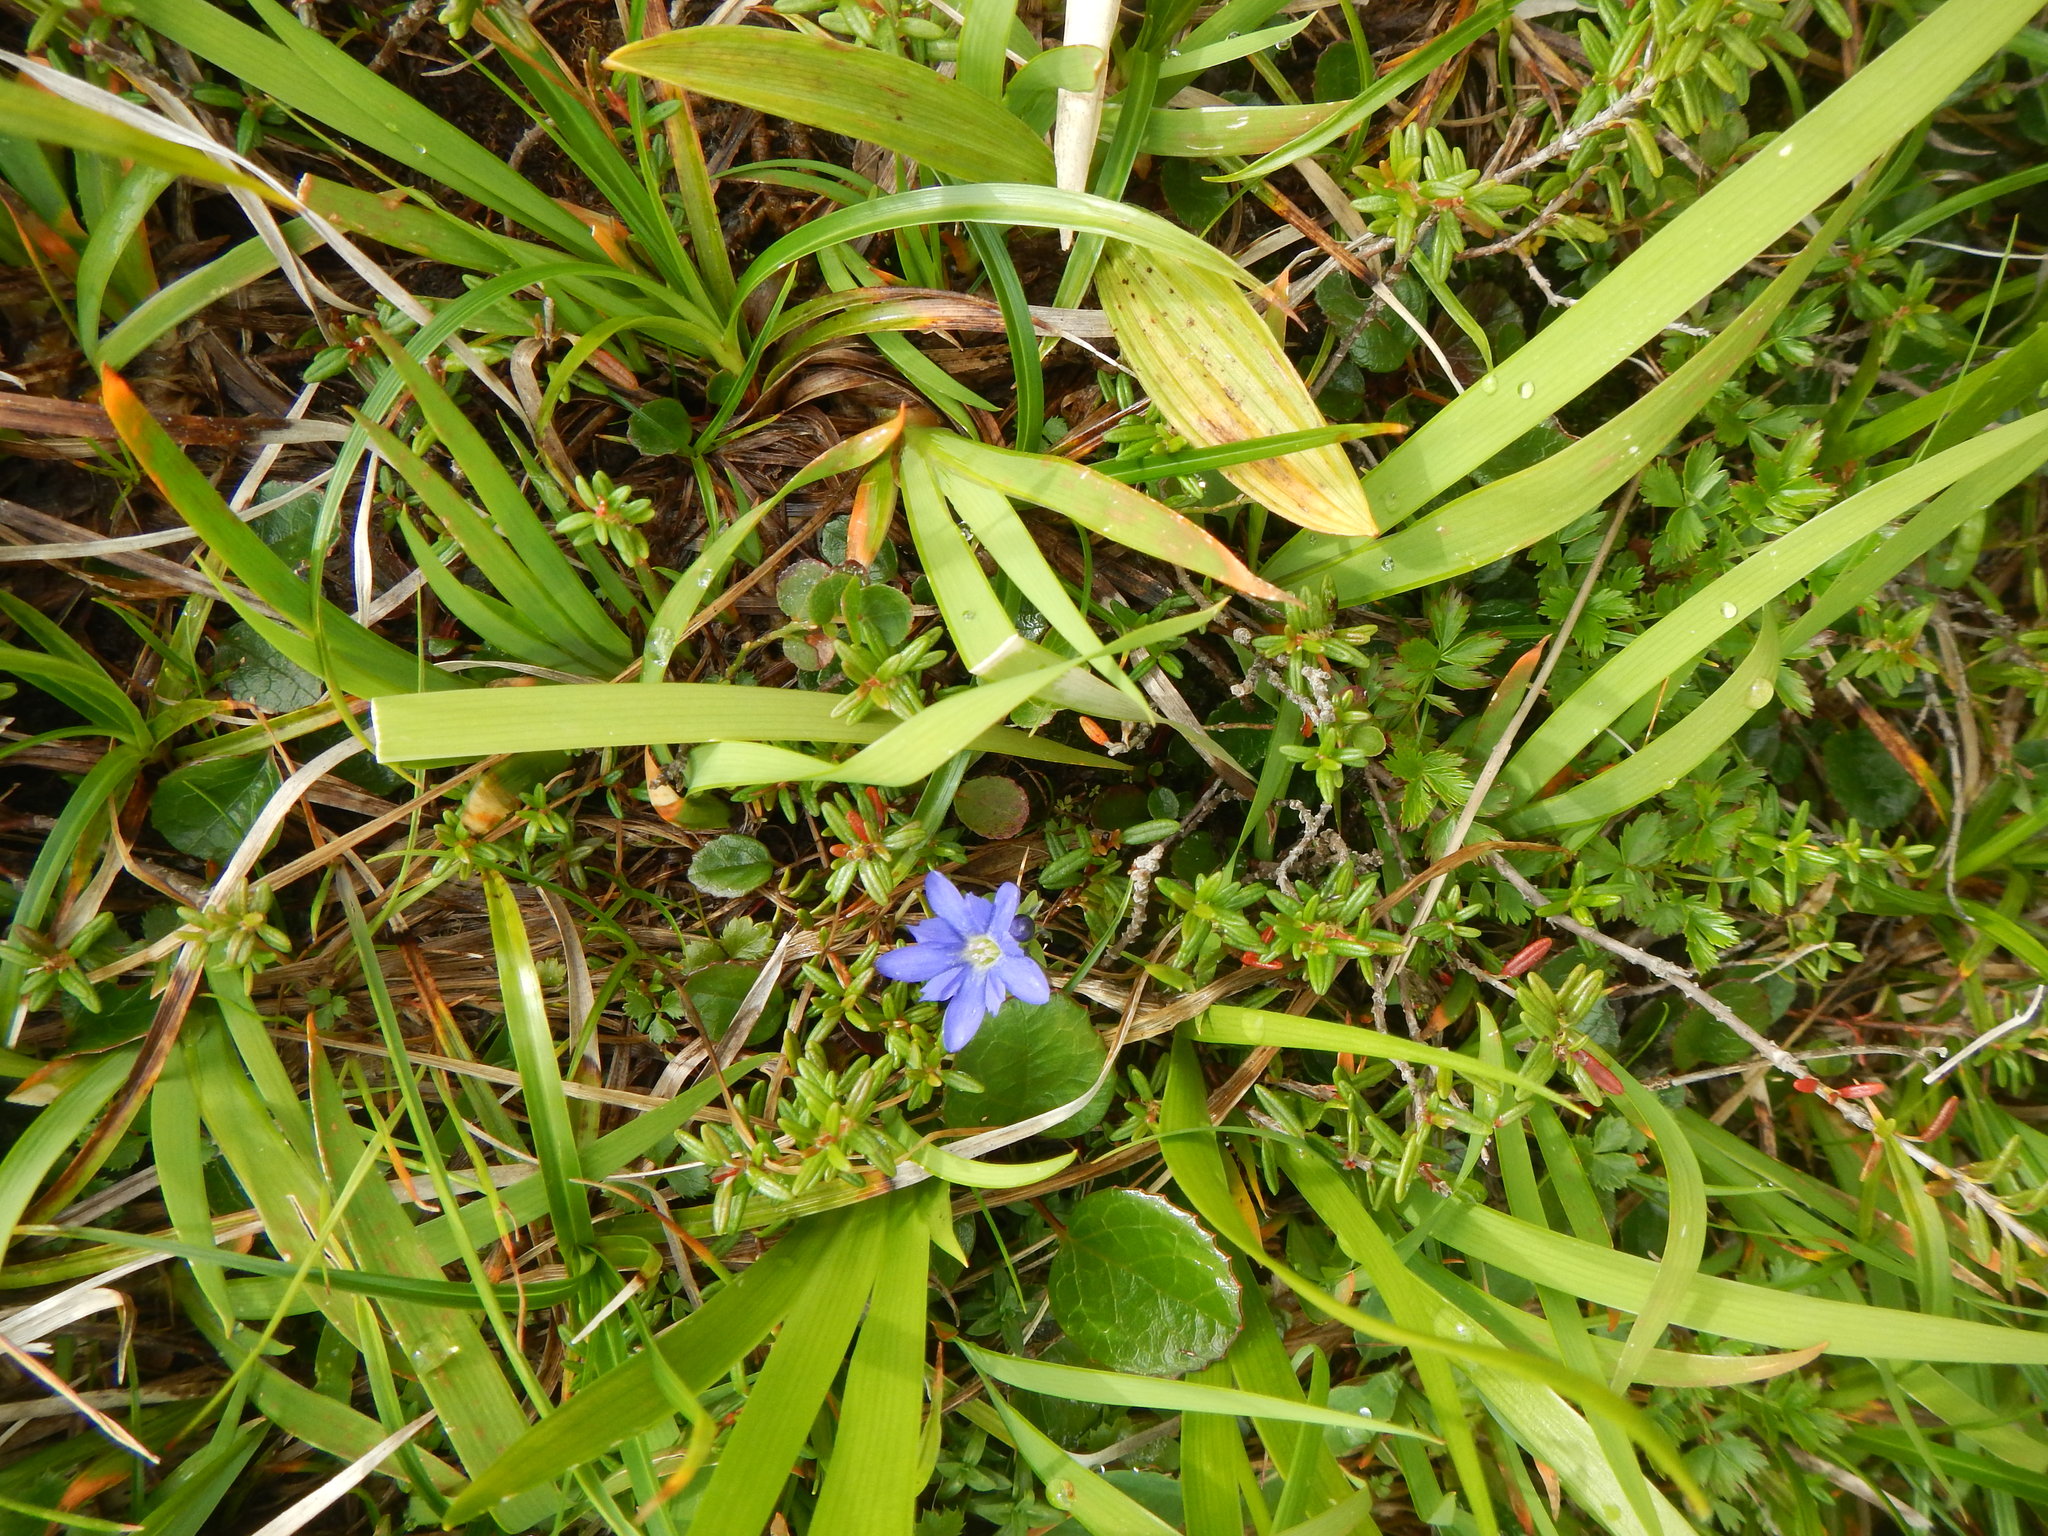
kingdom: Plantae
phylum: Tracheophyta
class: Magnoliopsida
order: Gentianales
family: Gentianaceae
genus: Gentiana
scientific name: Gentiana nipponica
